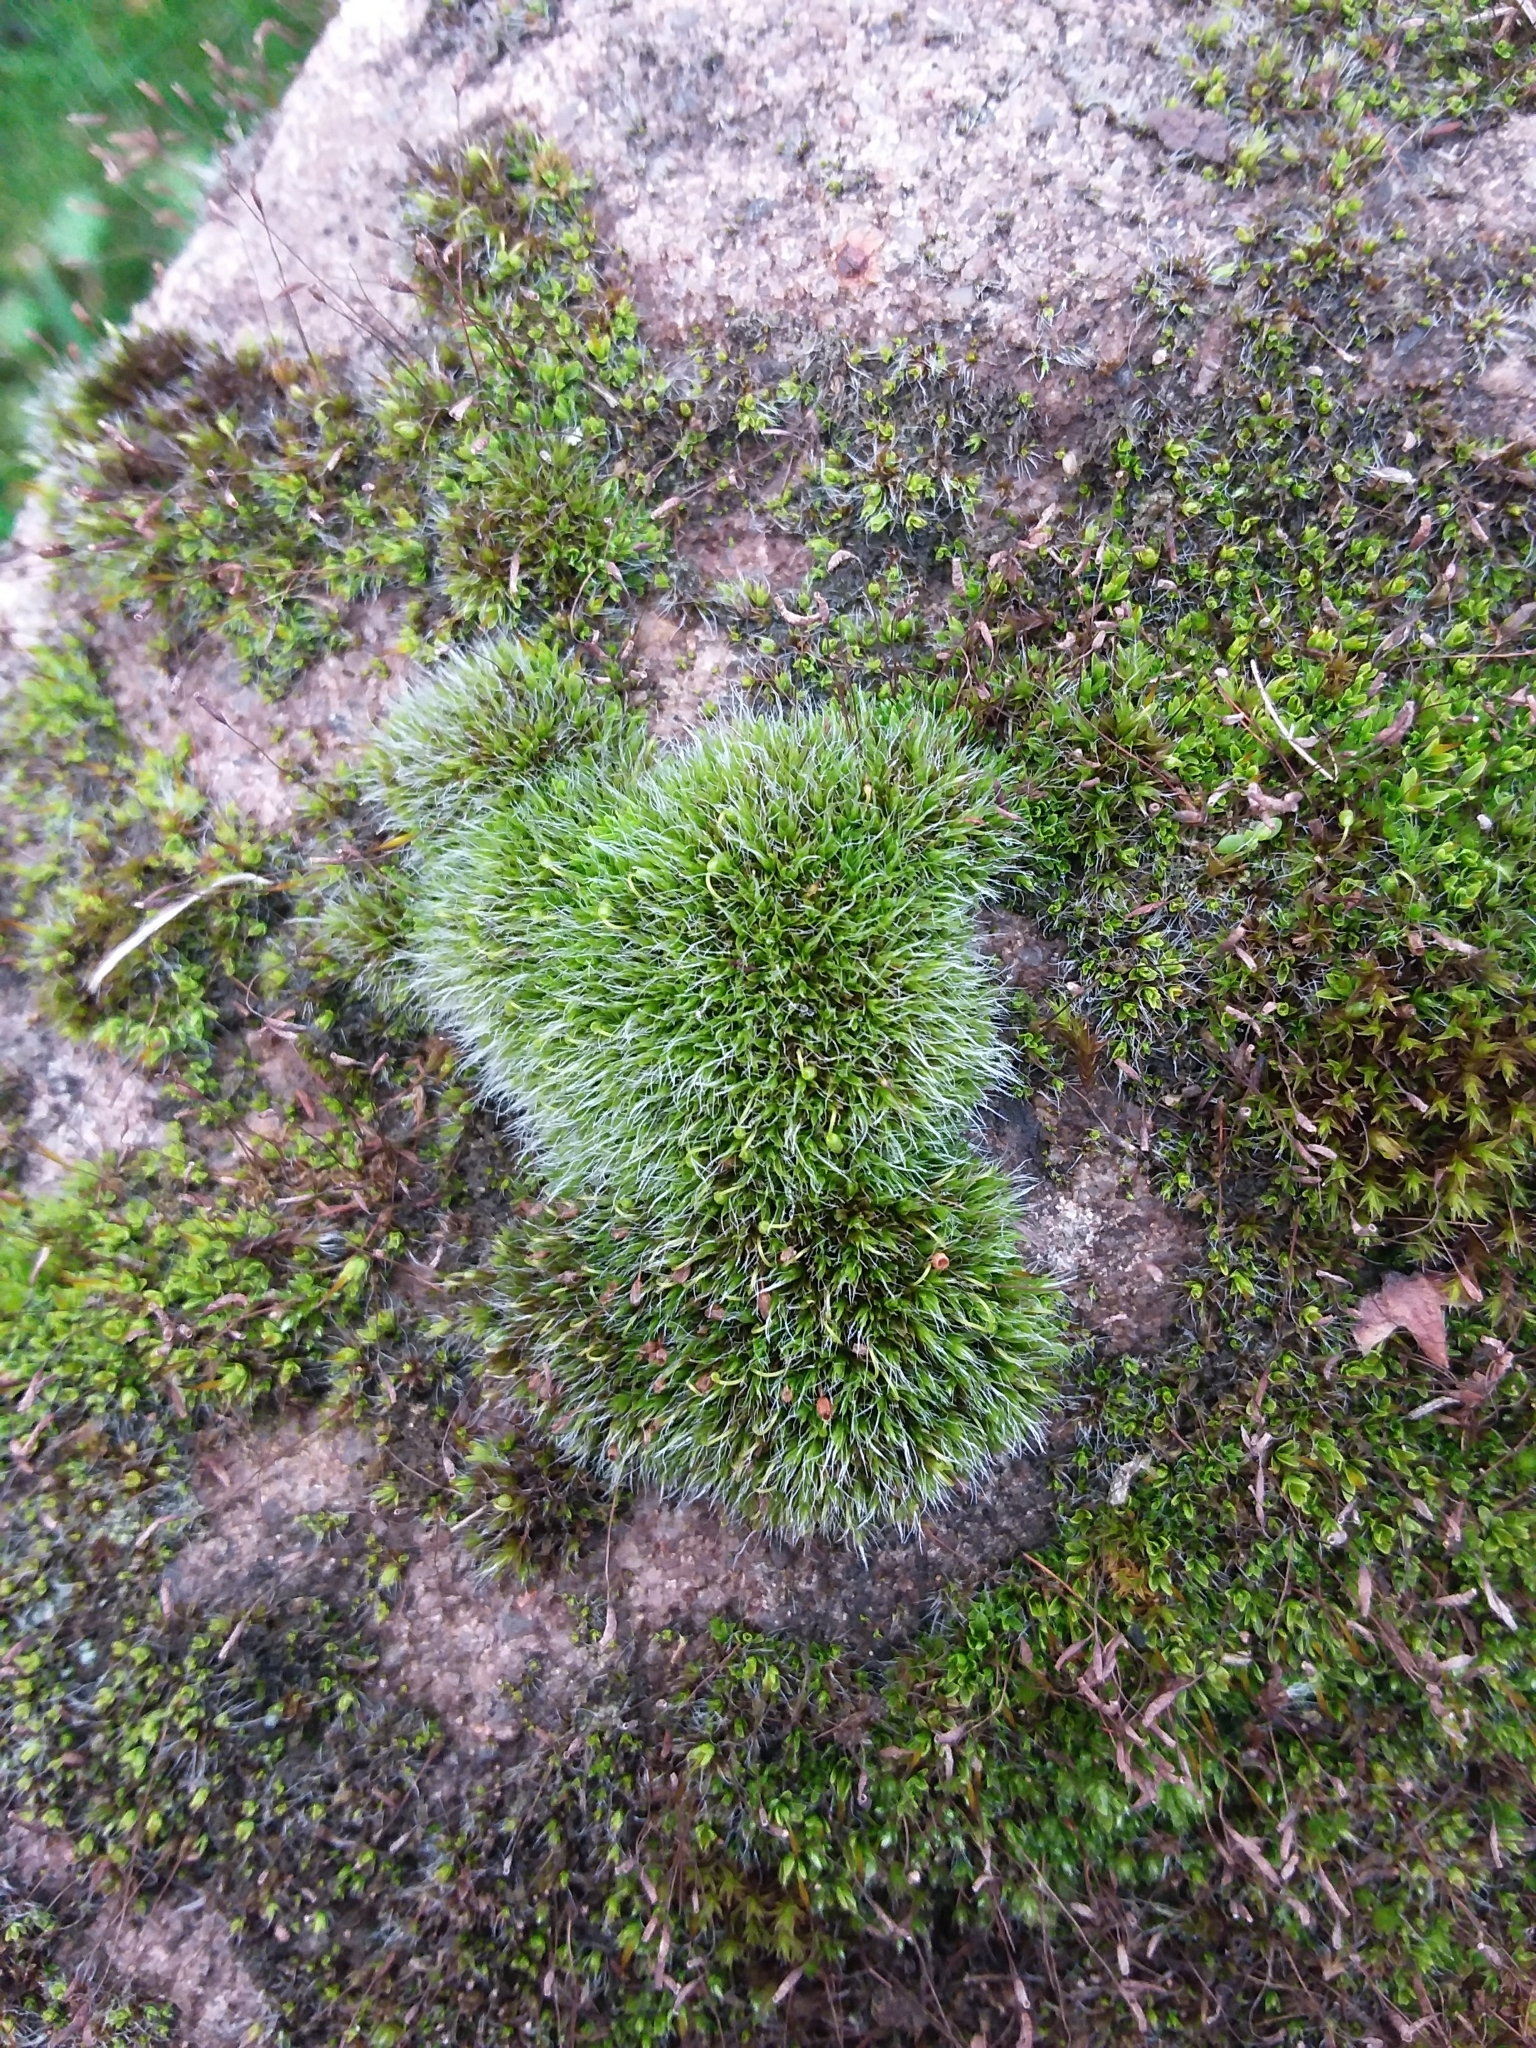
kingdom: Plantae
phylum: Bryophyta
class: Bryopsida
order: Grimmiales
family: Grimmiaceae
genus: Grimmia
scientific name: Grimmia pulvinata
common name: Grey-cushioned grimmia
